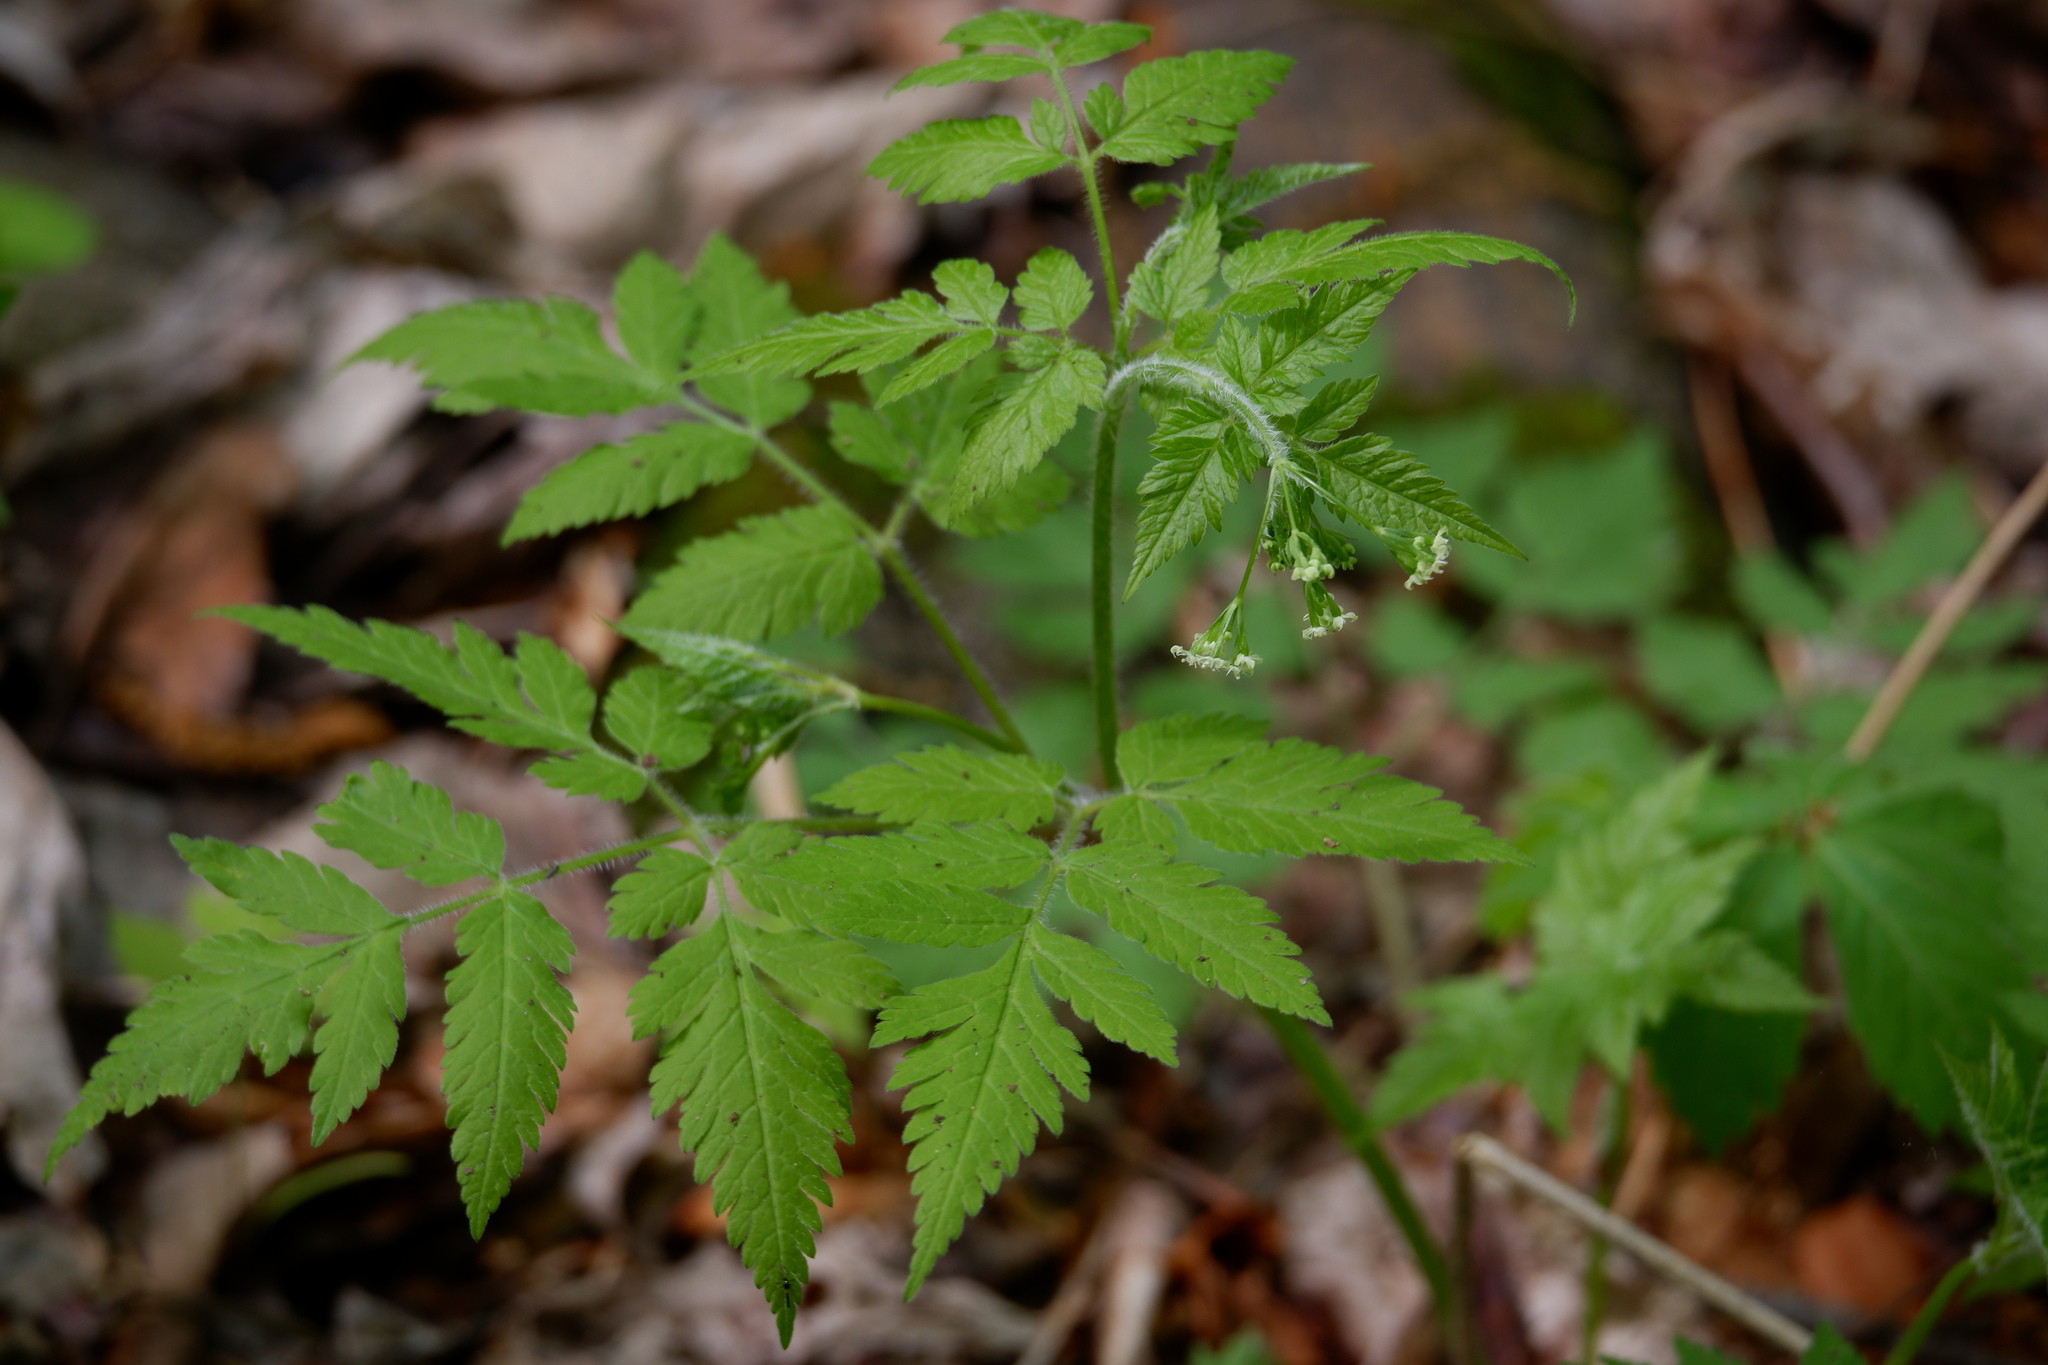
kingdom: Plantae
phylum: Tracheophyta
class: Magnoliopsida
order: Apiales
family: Apiaceae
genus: Osmorhiza
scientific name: Osmorhiza claytonii
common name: Hairy sweet cicely
